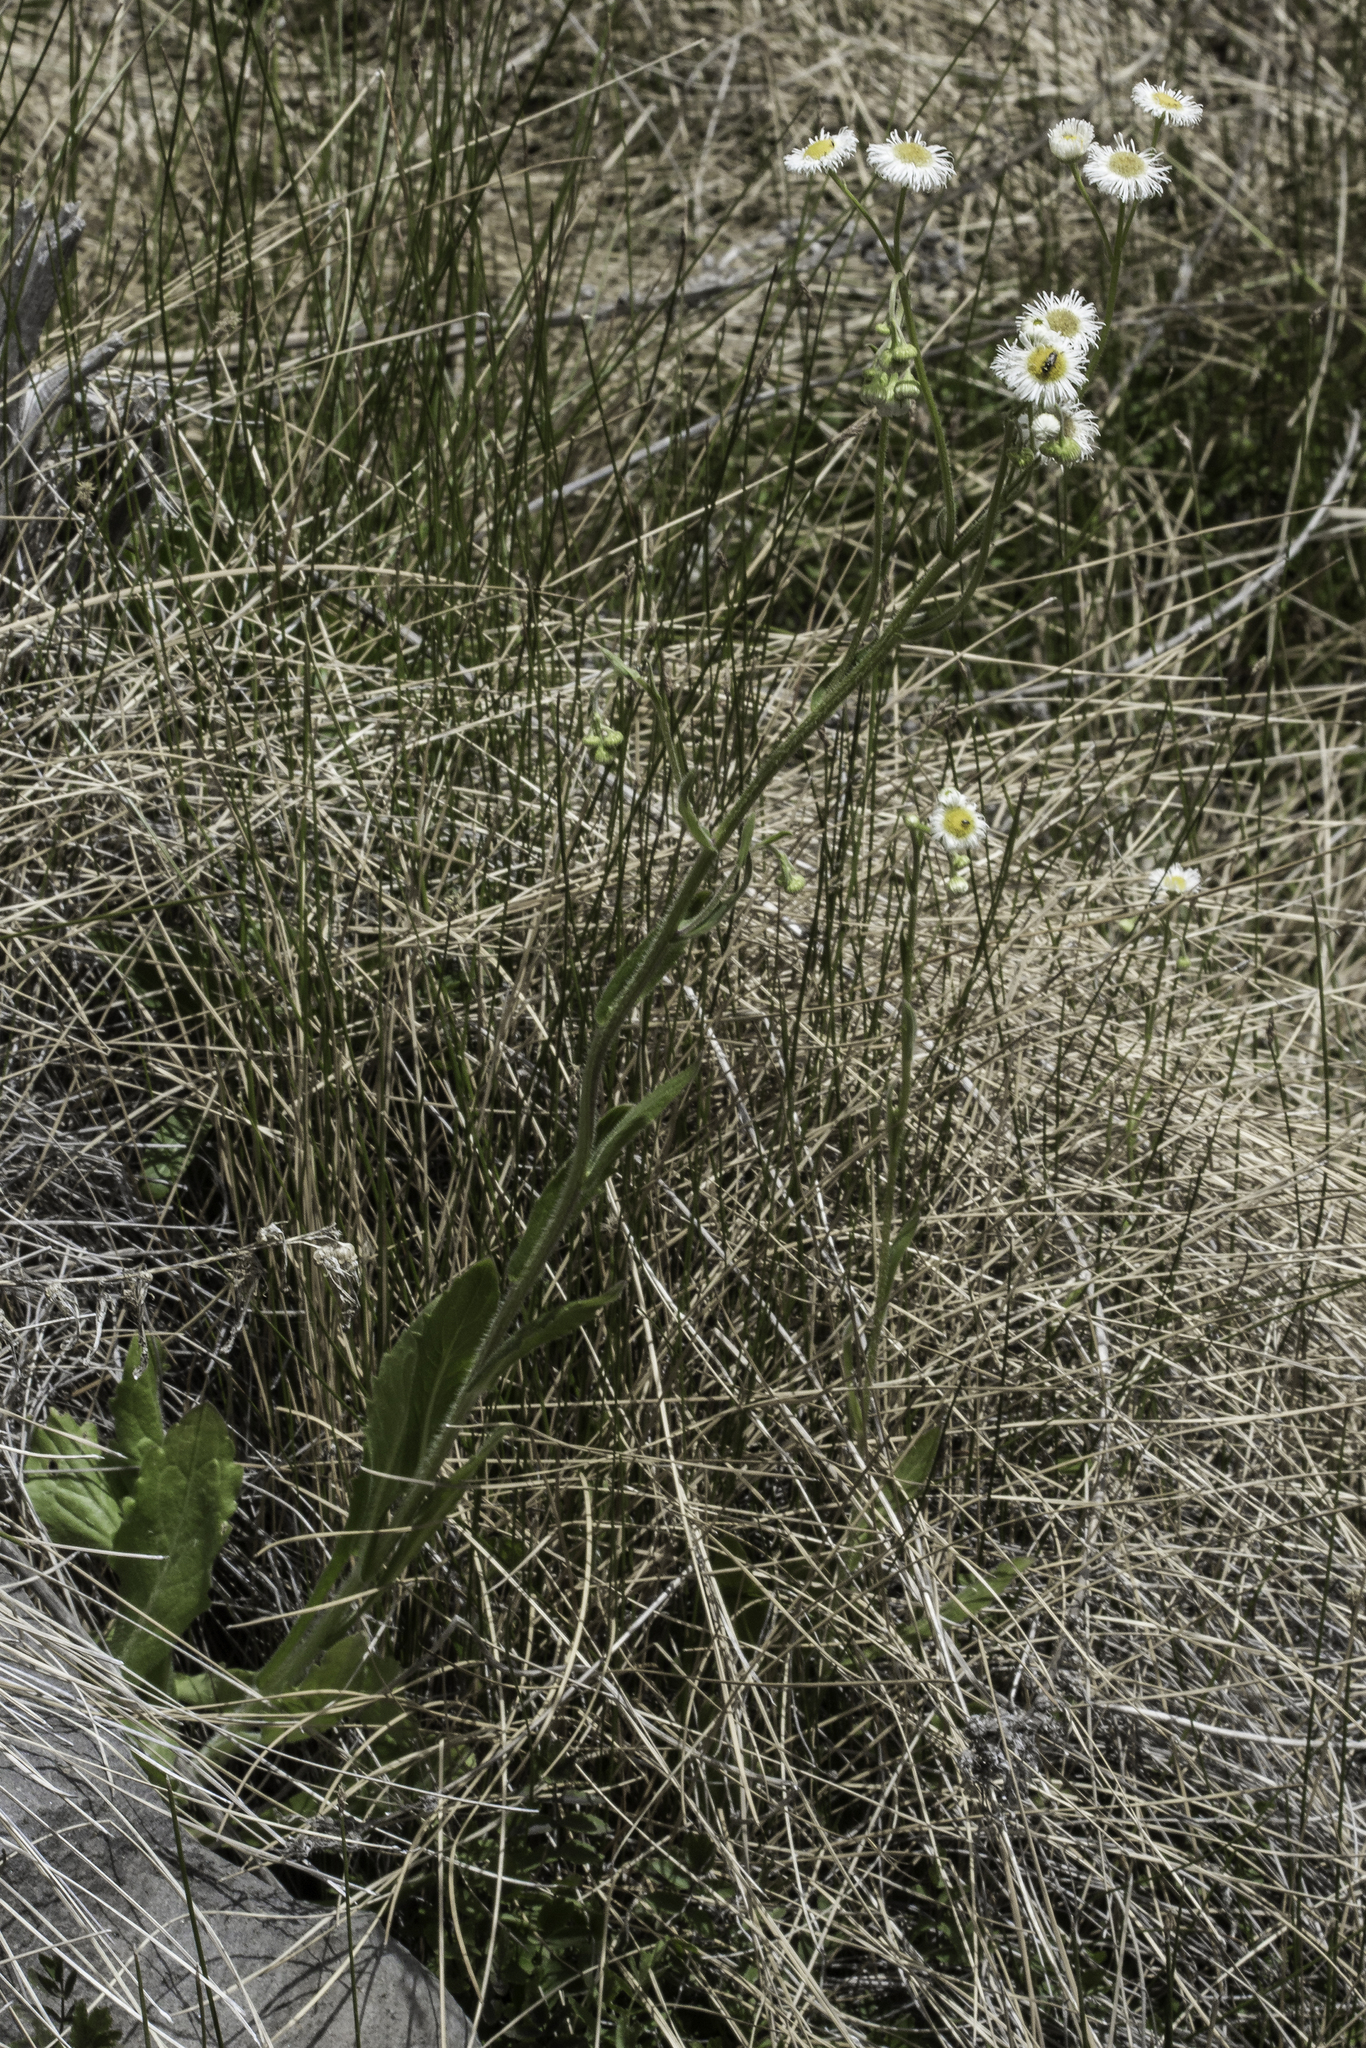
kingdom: Plantae
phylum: Tracheophyta
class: Magnoliopsida
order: Asterales
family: Asteraceae
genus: Erigeron
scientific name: Erigeron philadelphicus
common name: Robin's-plantain
